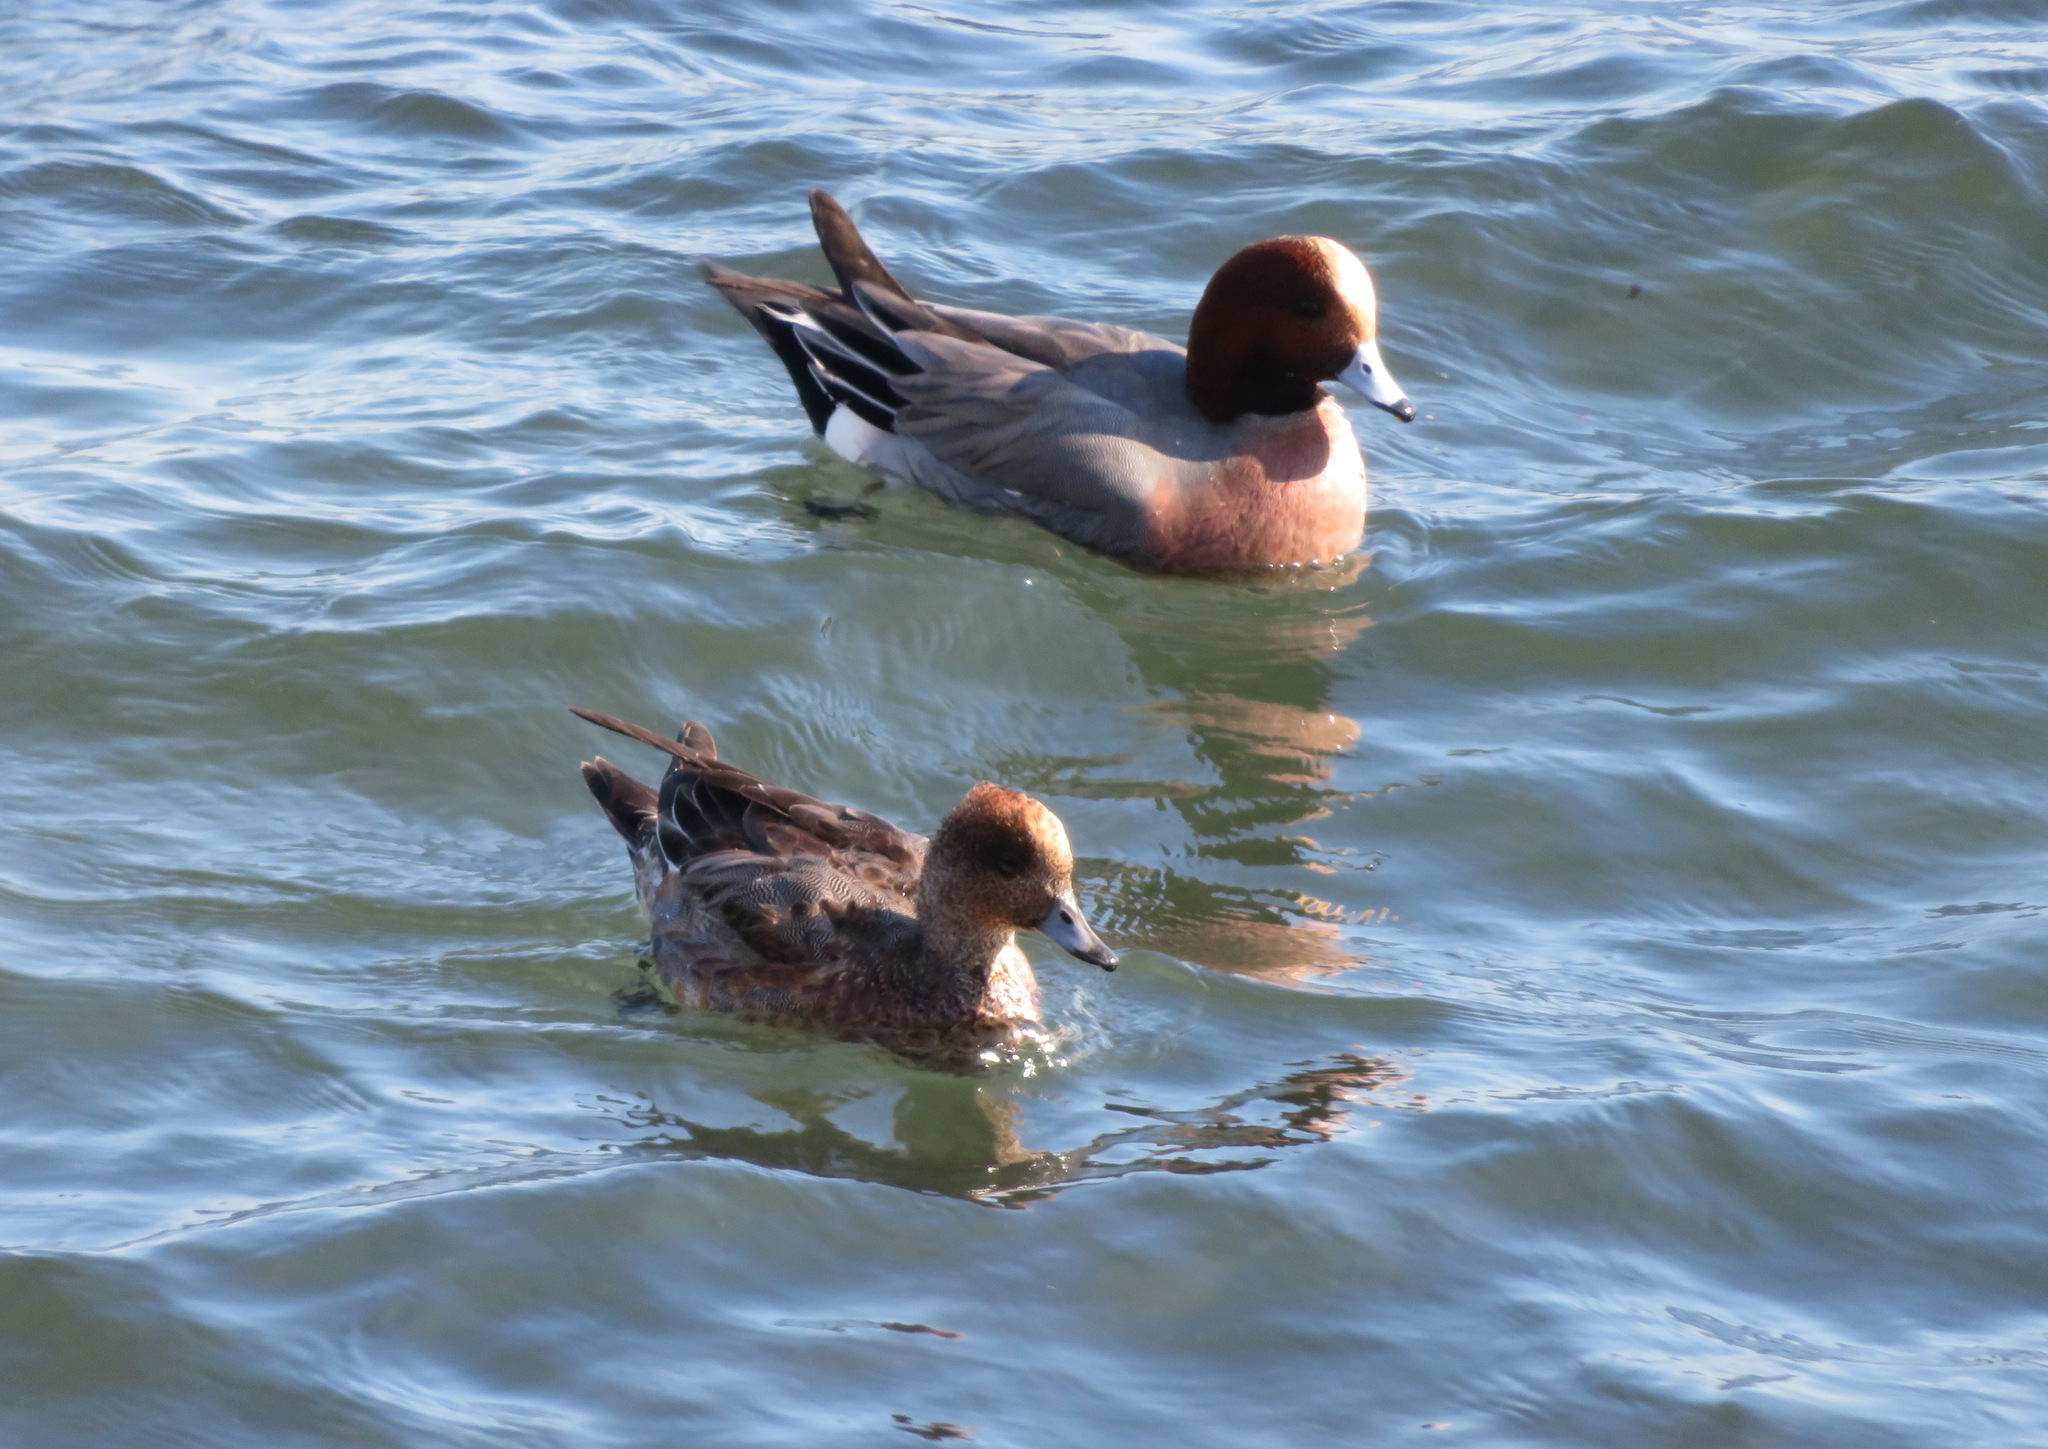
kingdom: Animalia
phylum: Chordata
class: Aves
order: Anseriformes
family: Anatidae
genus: Mareca
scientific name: Mareca penelope
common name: Eurasian wigeon
